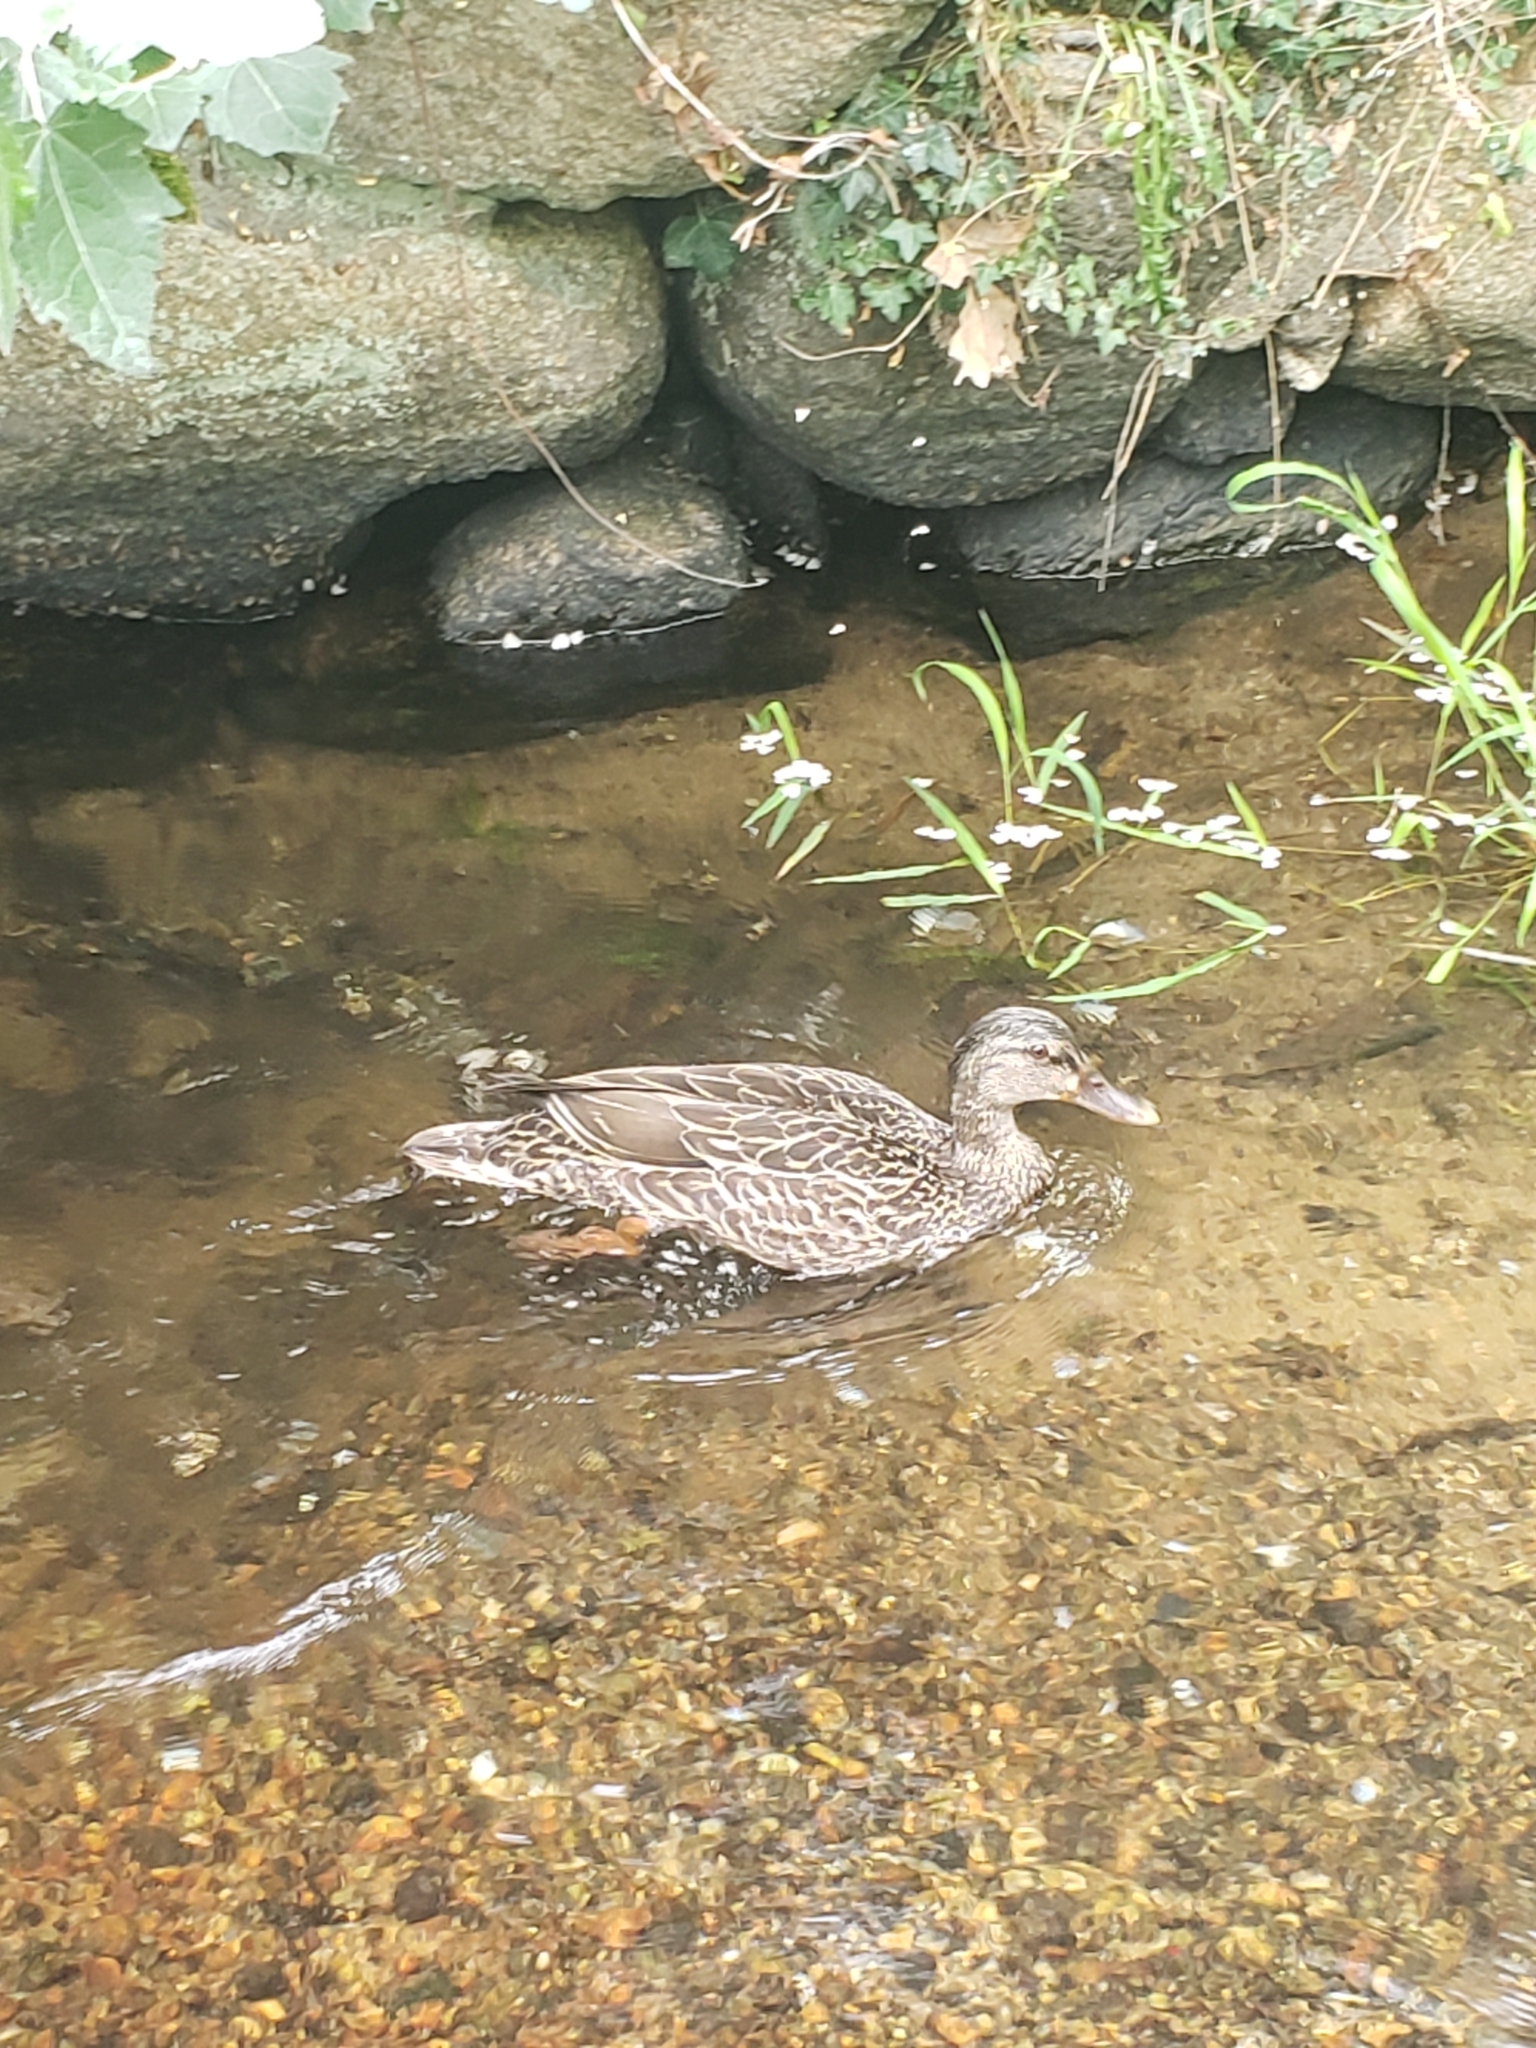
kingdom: Animalia
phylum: Chordata
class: Aves
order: Anseriformes
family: Anatidae
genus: Anas
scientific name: Anas platyrhynchos
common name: Mallard
